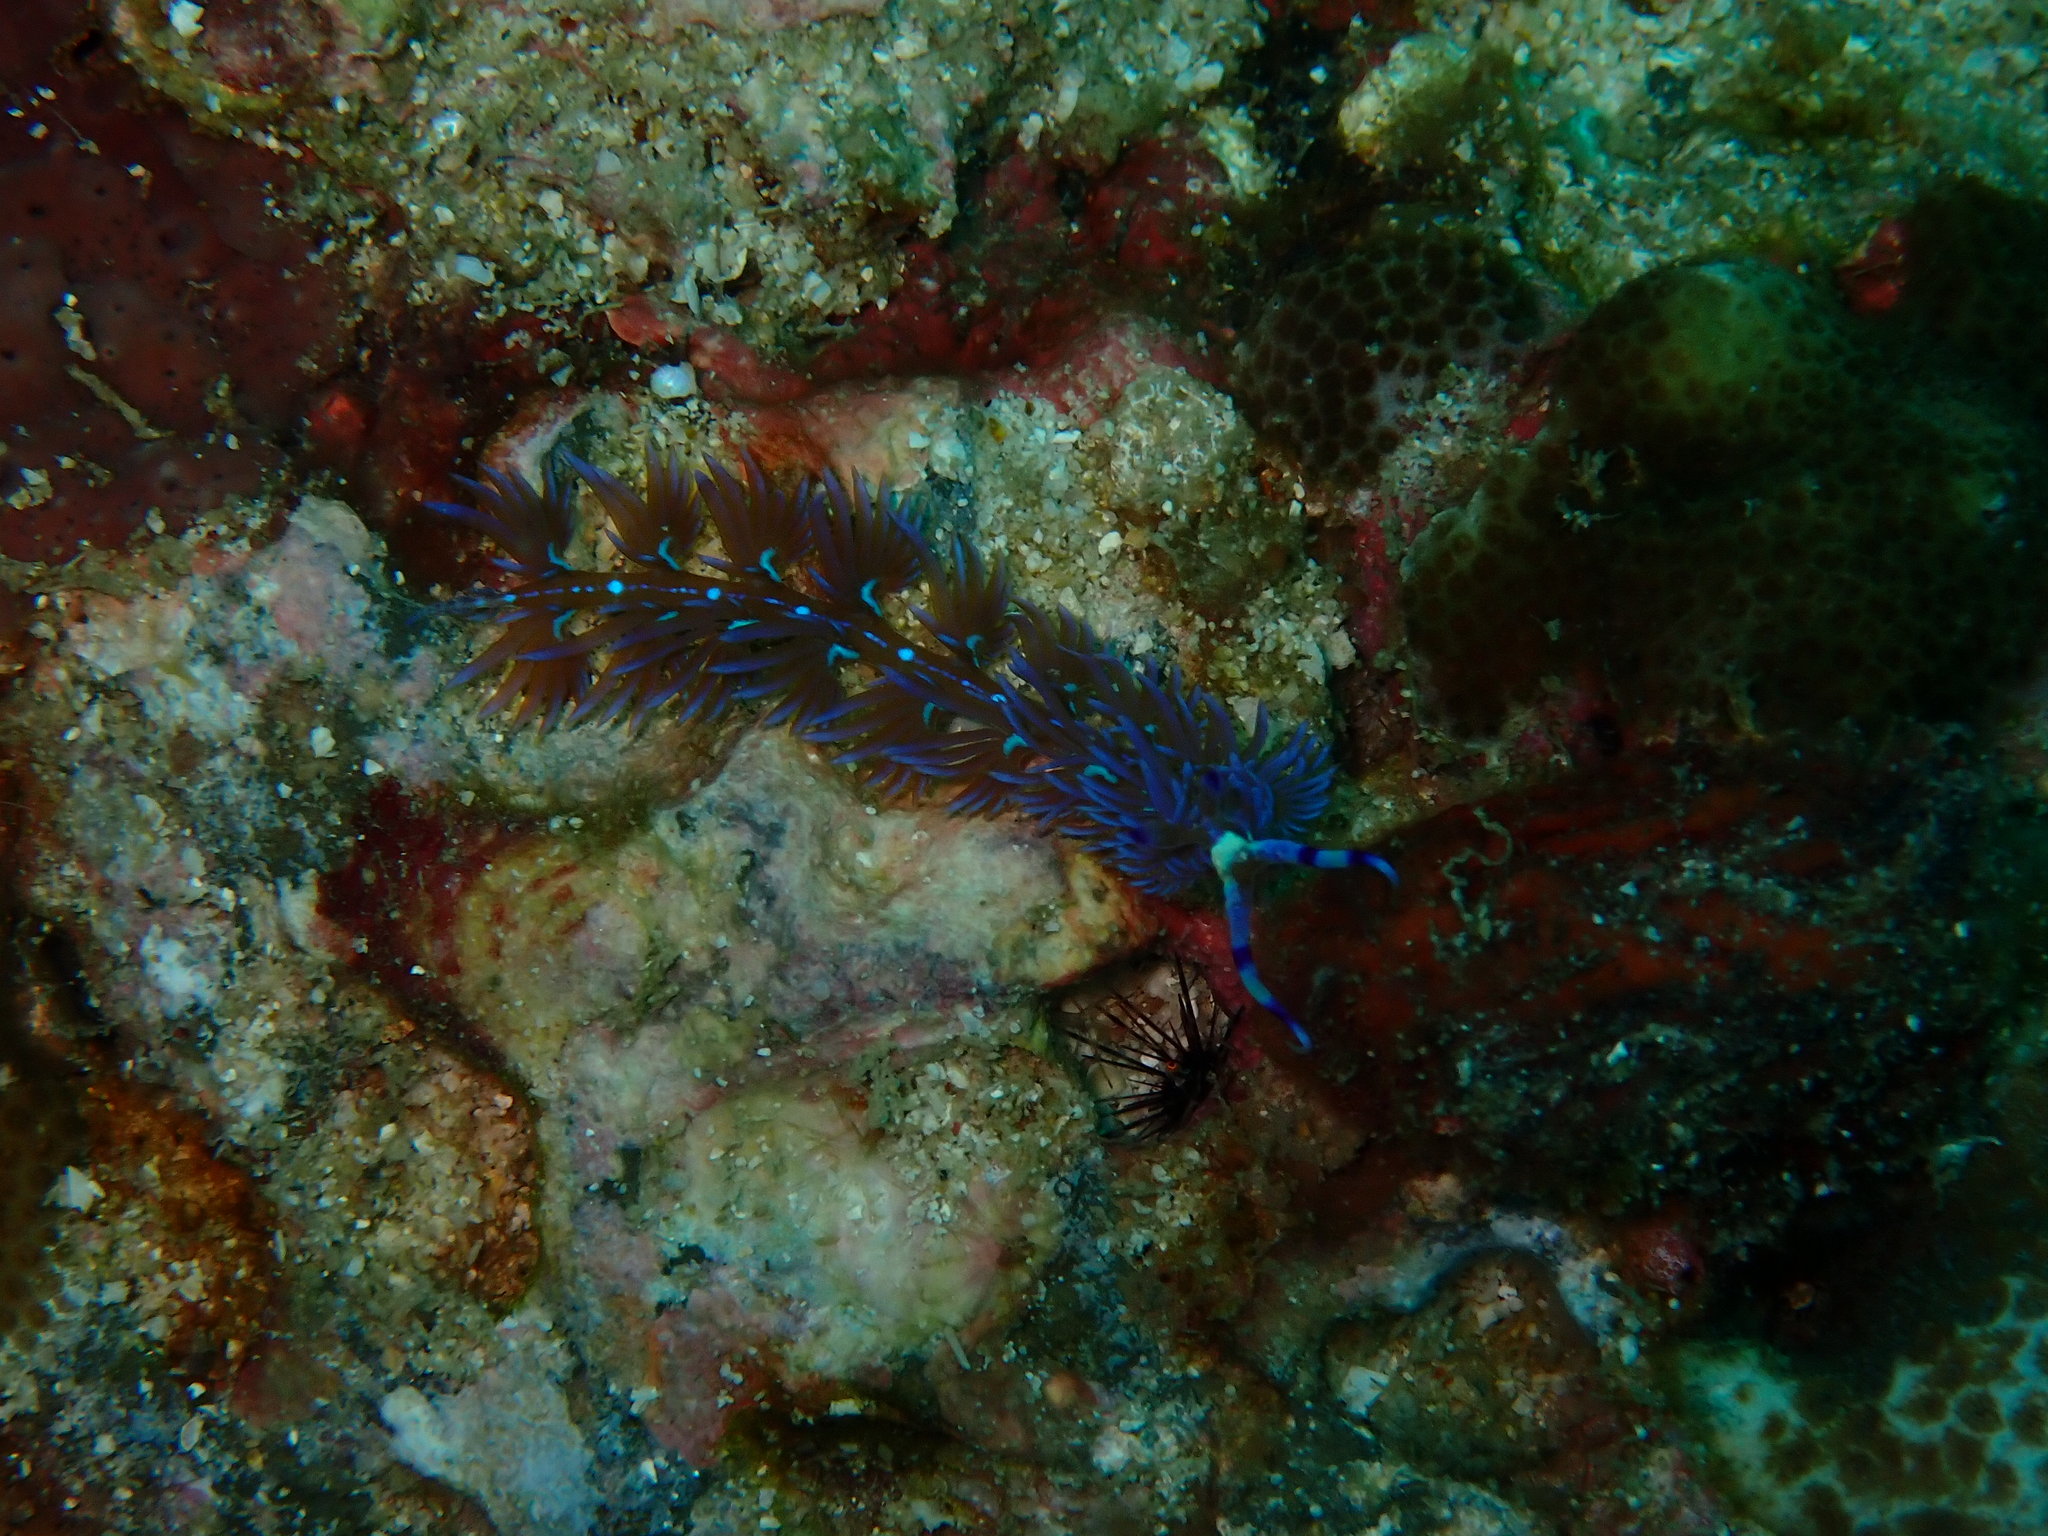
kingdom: Animalia
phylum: Mollusca
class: Gastropoda
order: Nudibranchia
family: Facelinidae
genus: Pteraeolidia
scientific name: Pteraeolidia semperi
